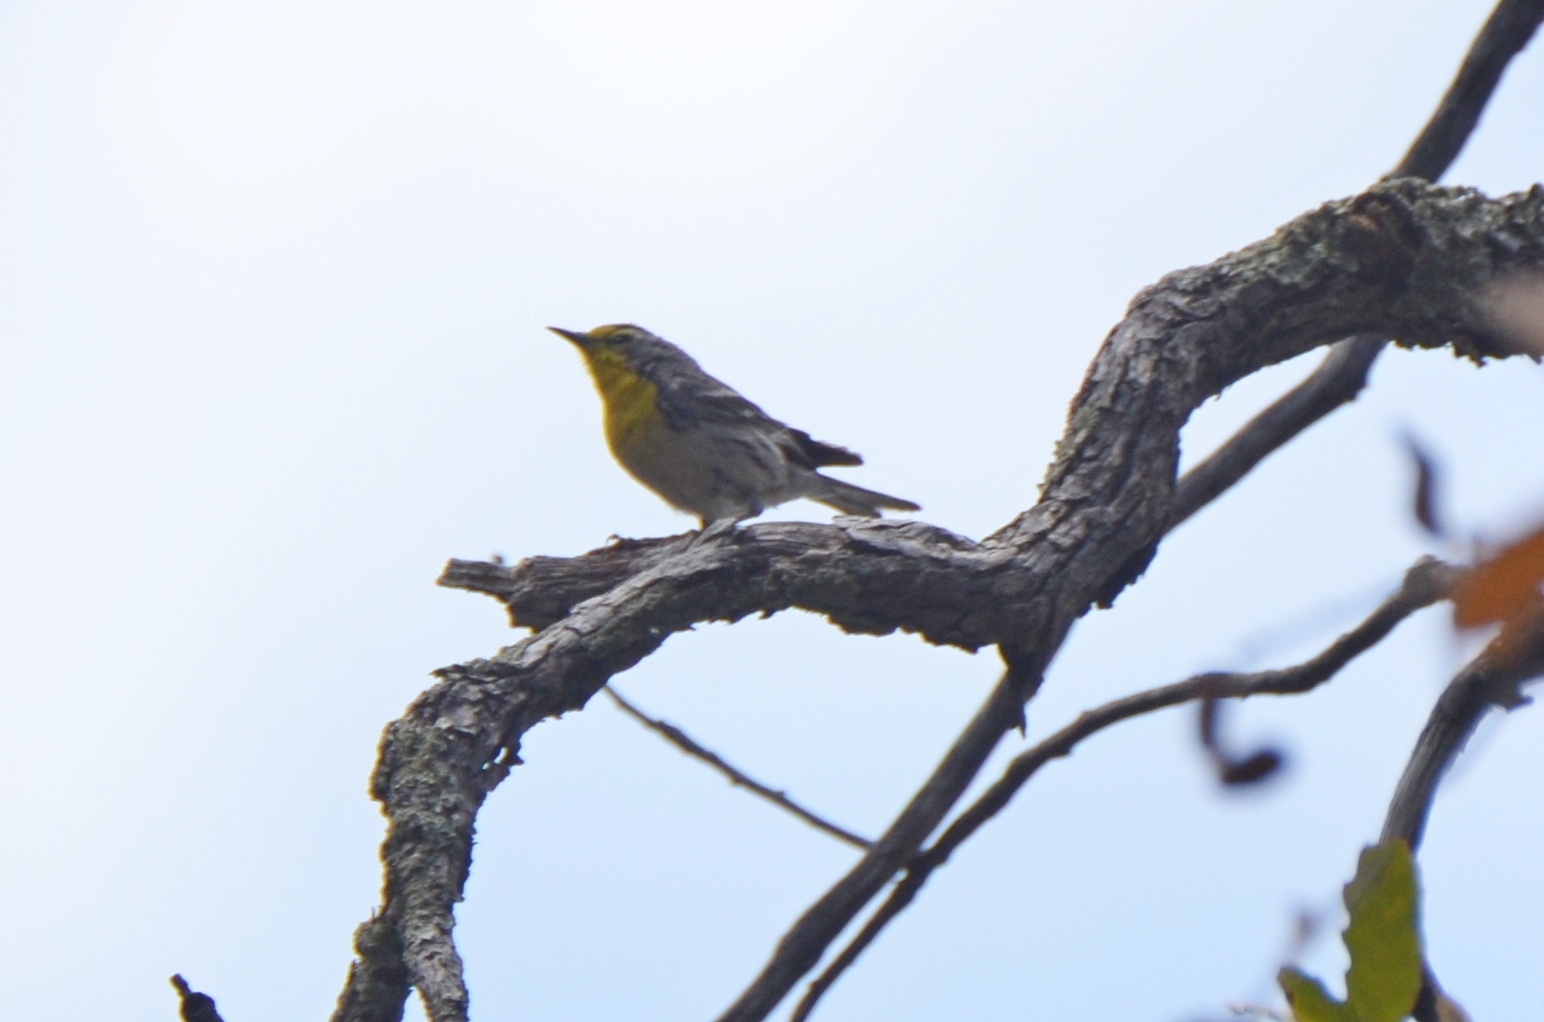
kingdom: Animalia
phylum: Chordata
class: Aves
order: Passeriformes
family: Parulidae
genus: Setophaga
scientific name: Setophaga graciae
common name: Grace's warbler
